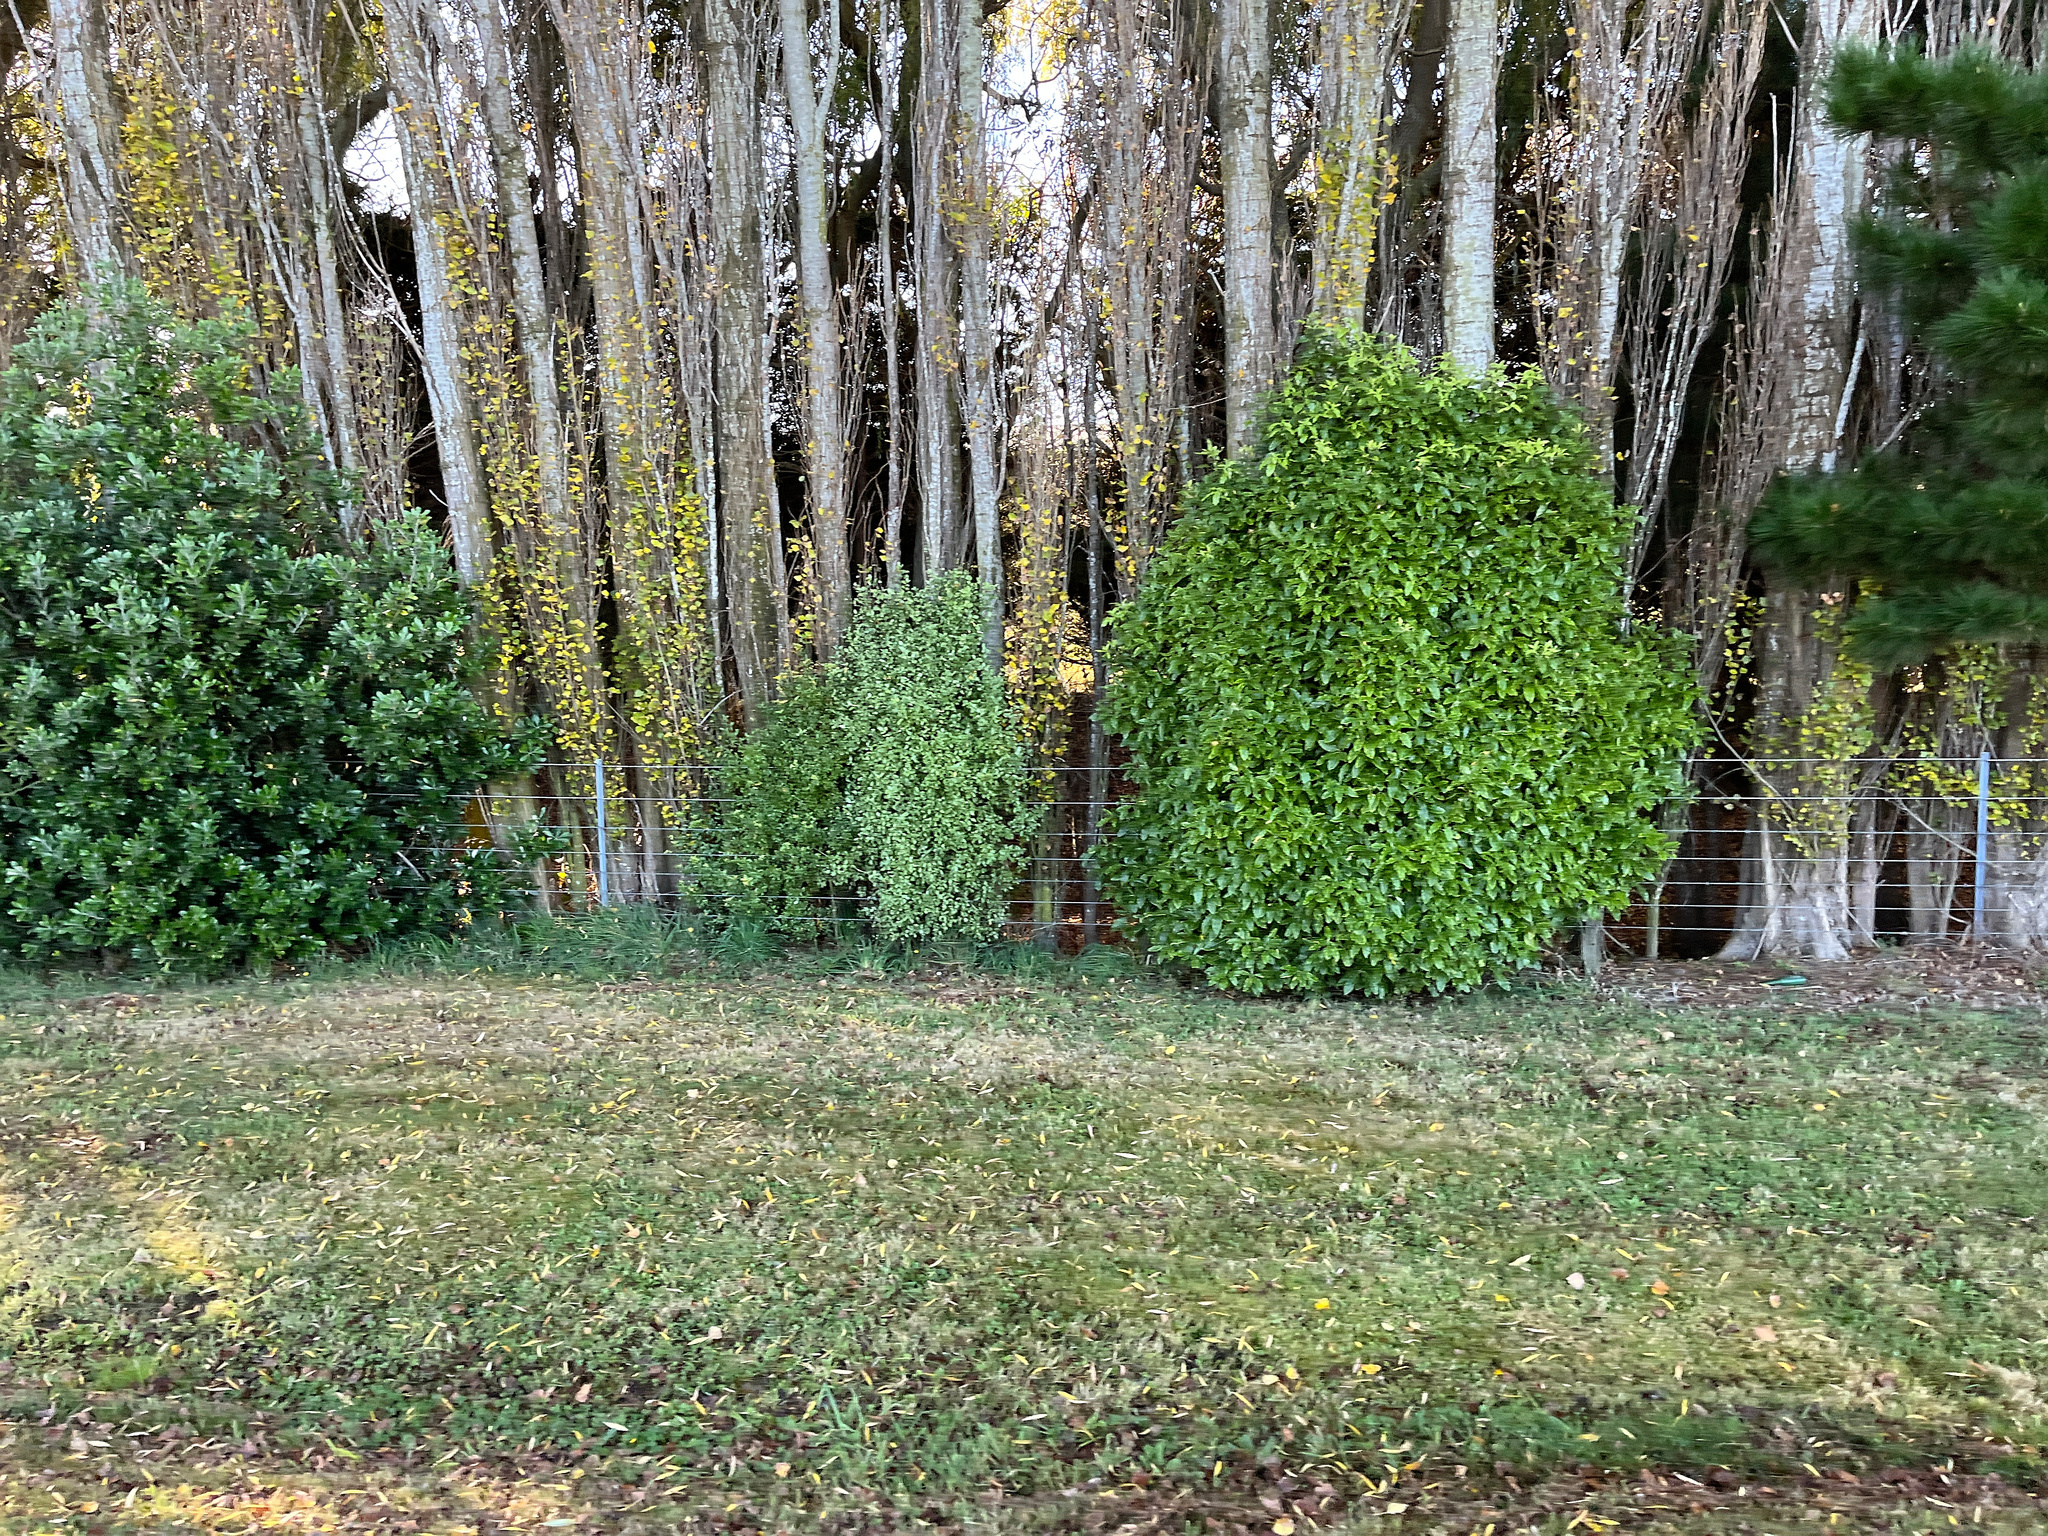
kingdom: Plantae
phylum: Tracheophyta
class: Magnoliopsida
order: Apiales
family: Pittosporaceae
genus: Pittosporum
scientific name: Pittosporum tenuifolium
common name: Kohuhu
